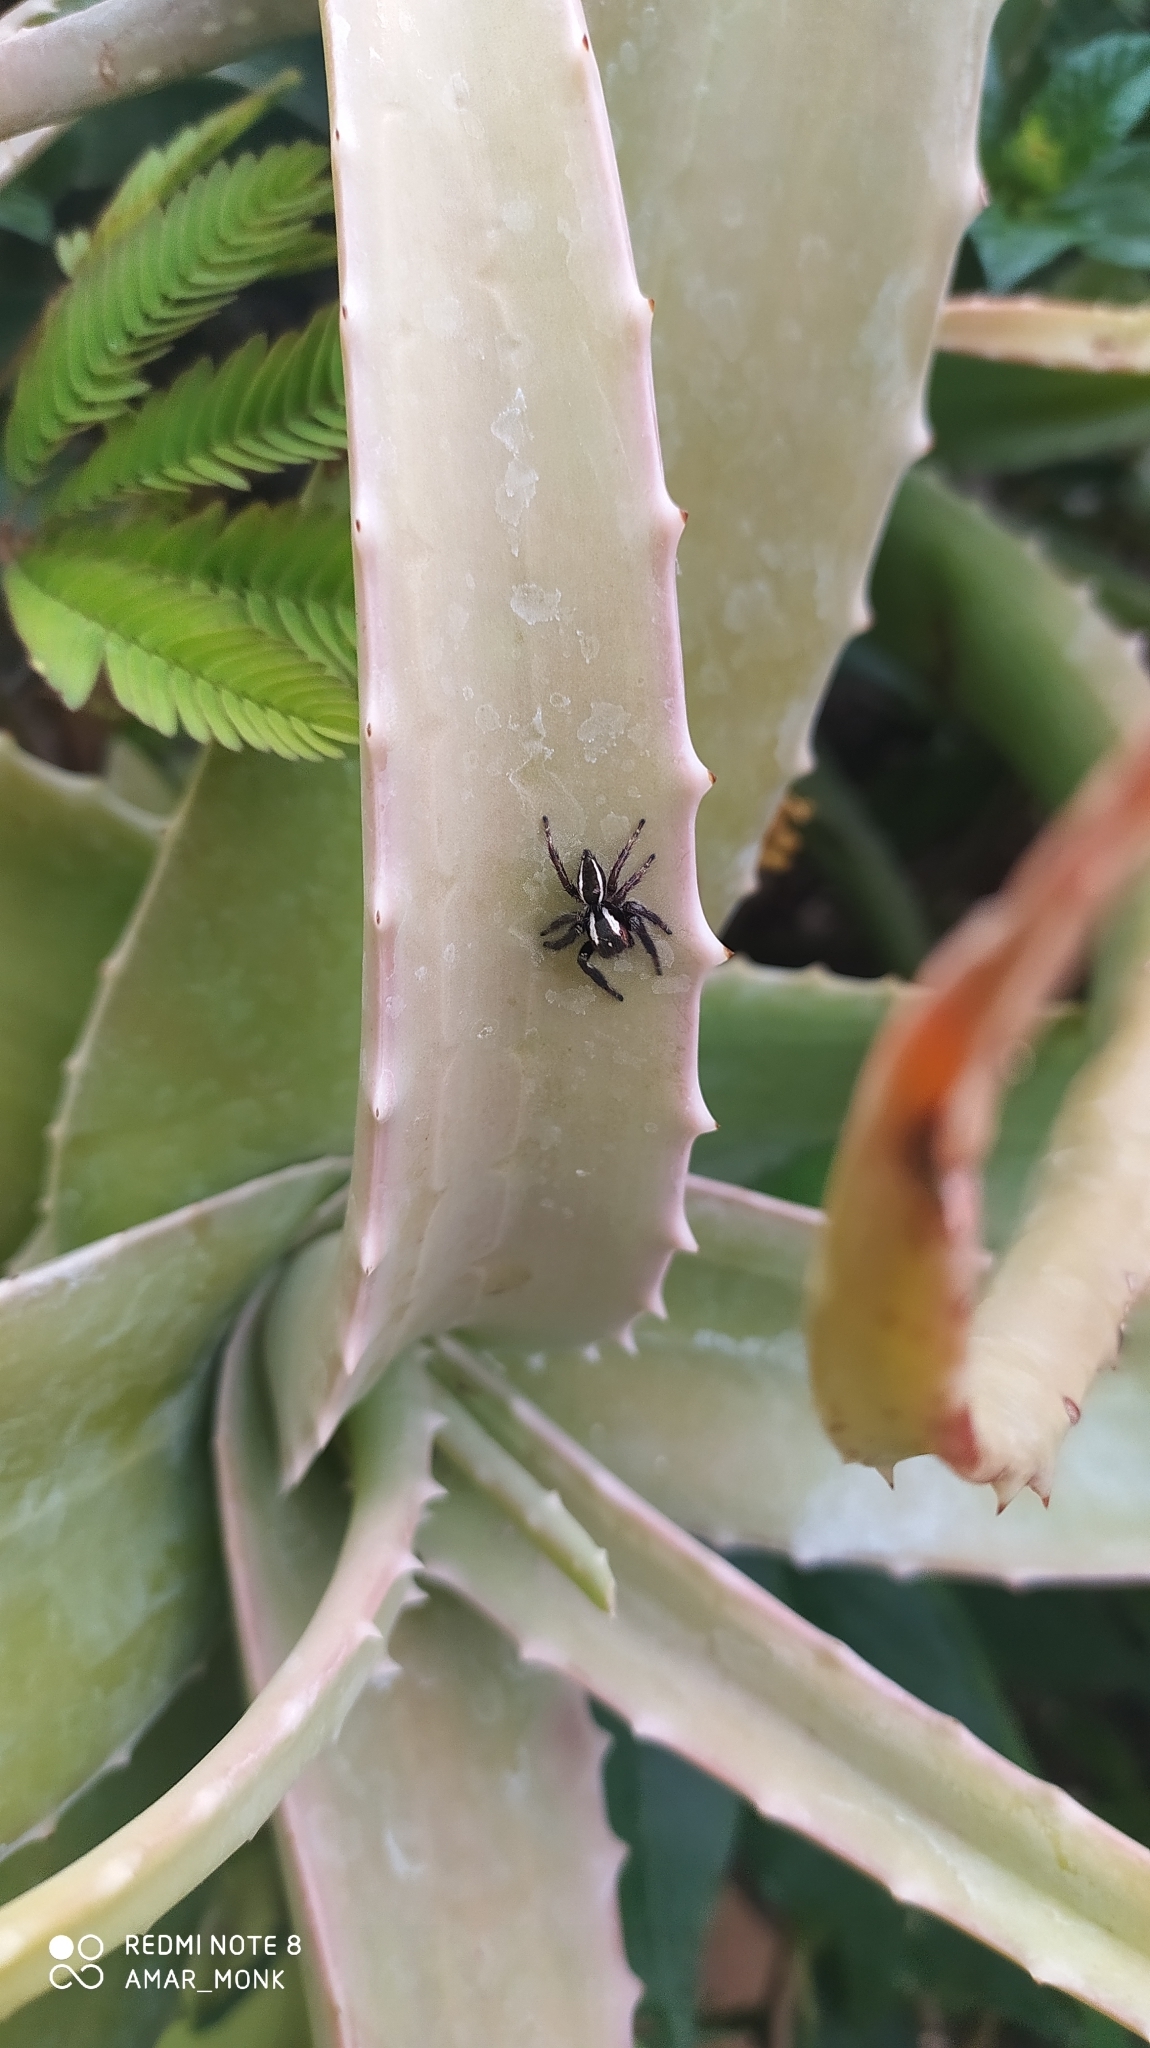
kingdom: Animalia
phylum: Arthropoda
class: Arachnida
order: Araneae
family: Salticidae
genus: Carrhotus
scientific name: Carrhotus viduus
